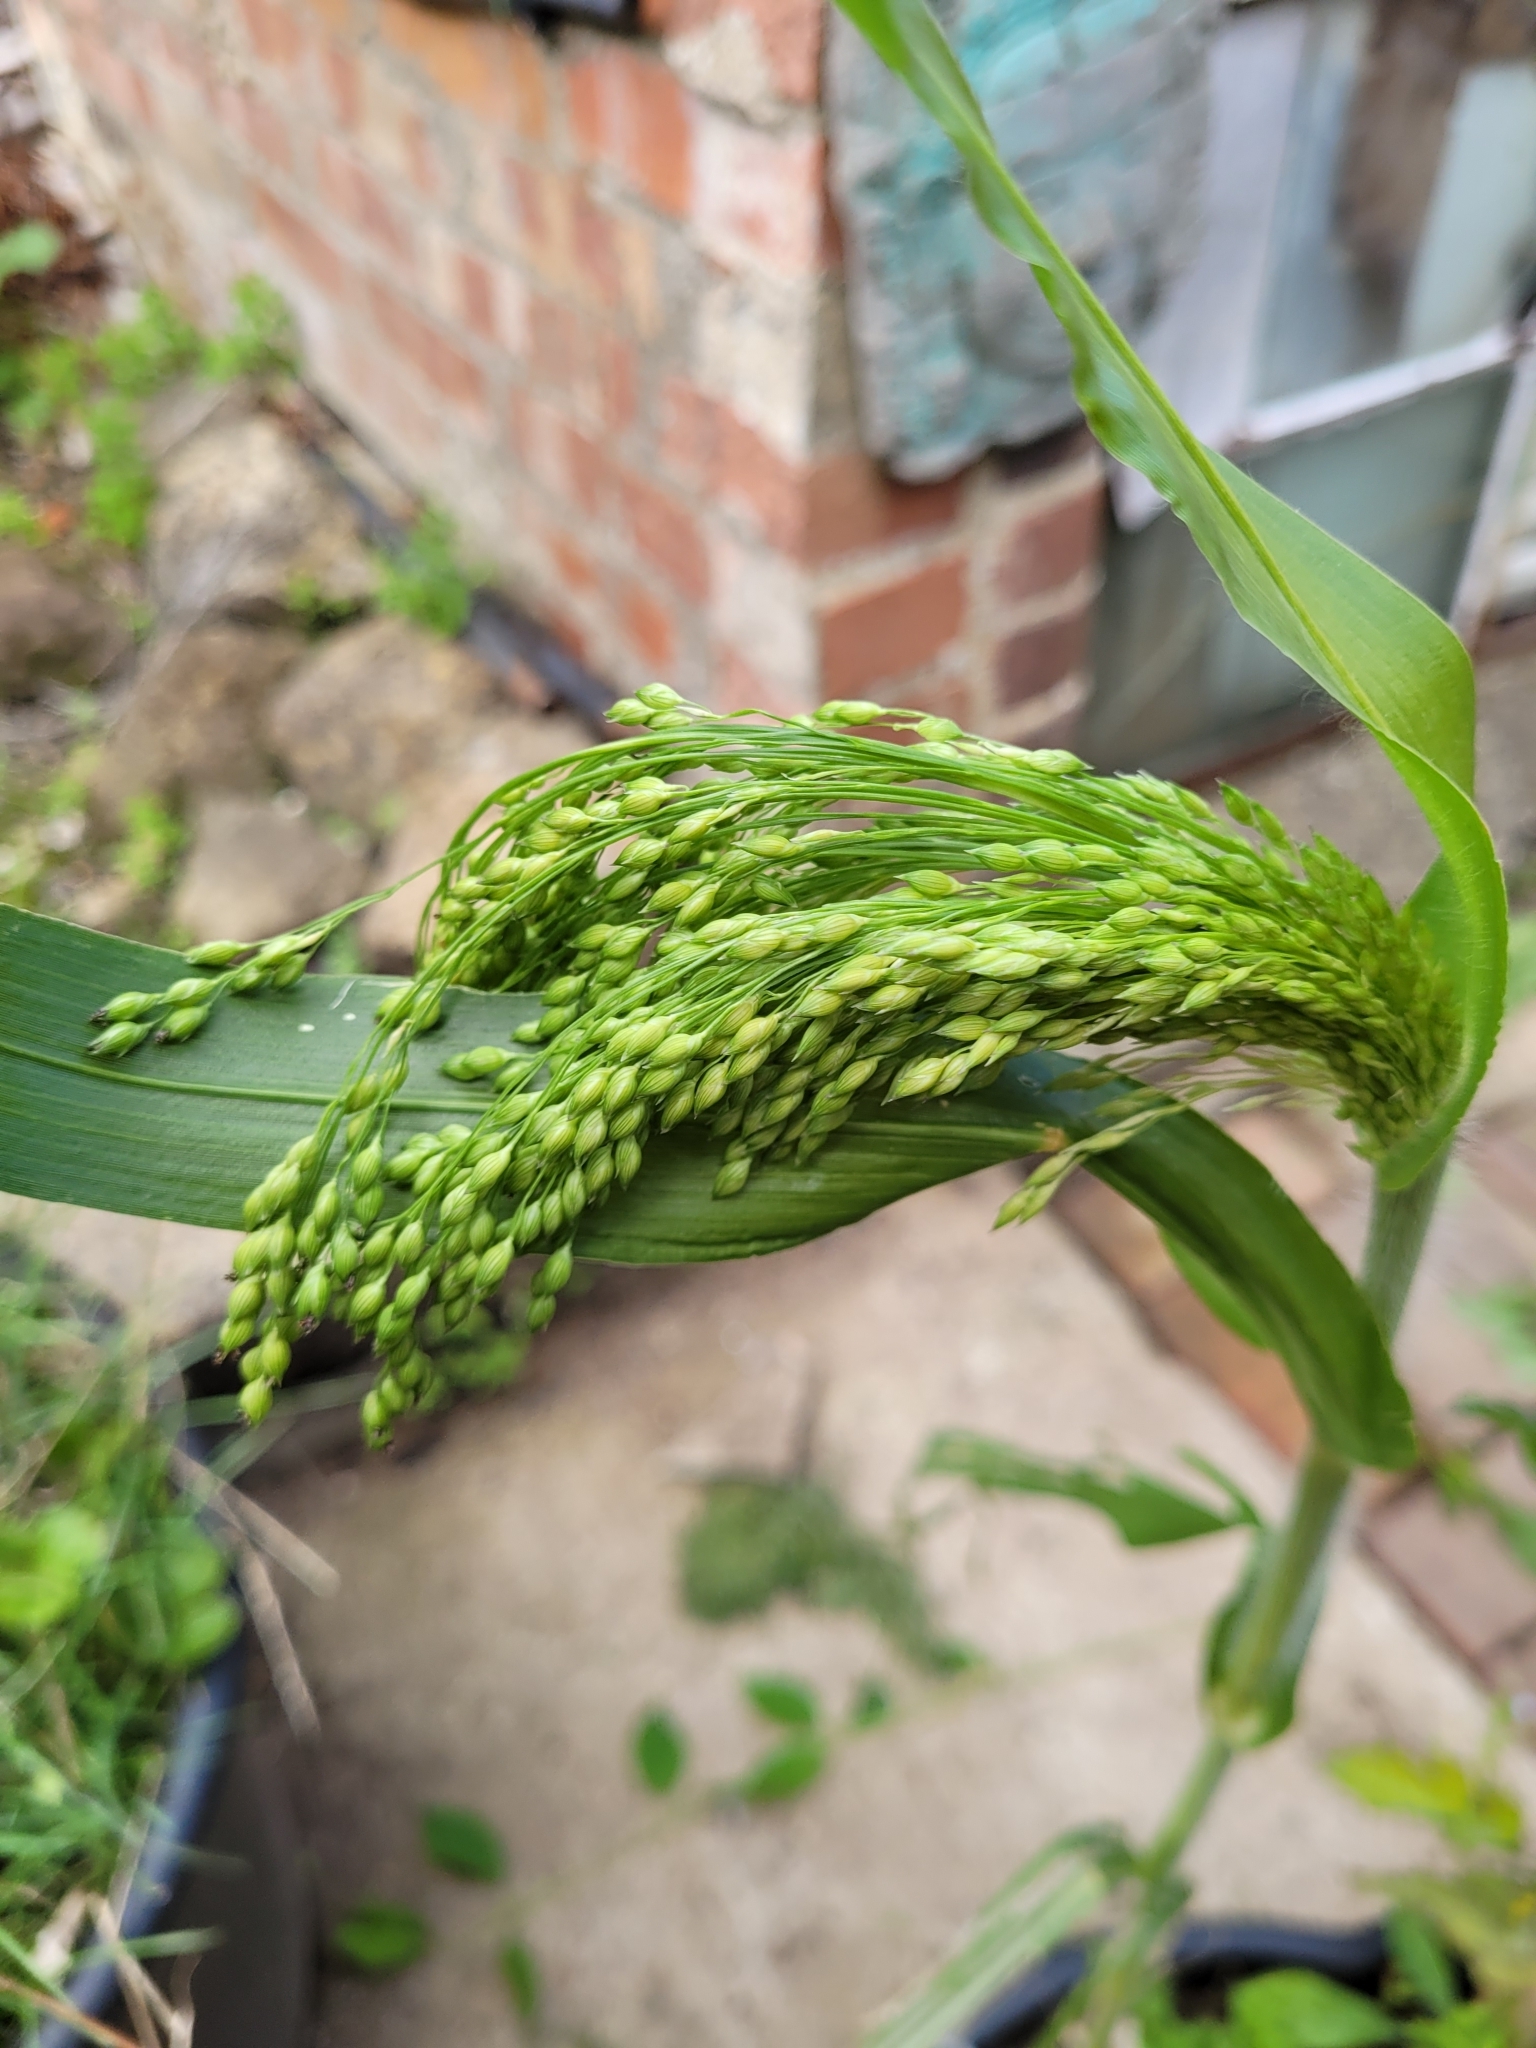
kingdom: Plantae
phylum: Tracheophyta
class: Liliopsida
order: Poales
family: Poaceae
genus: Panicum
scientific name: Panicum miliaceum
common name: Common millet
